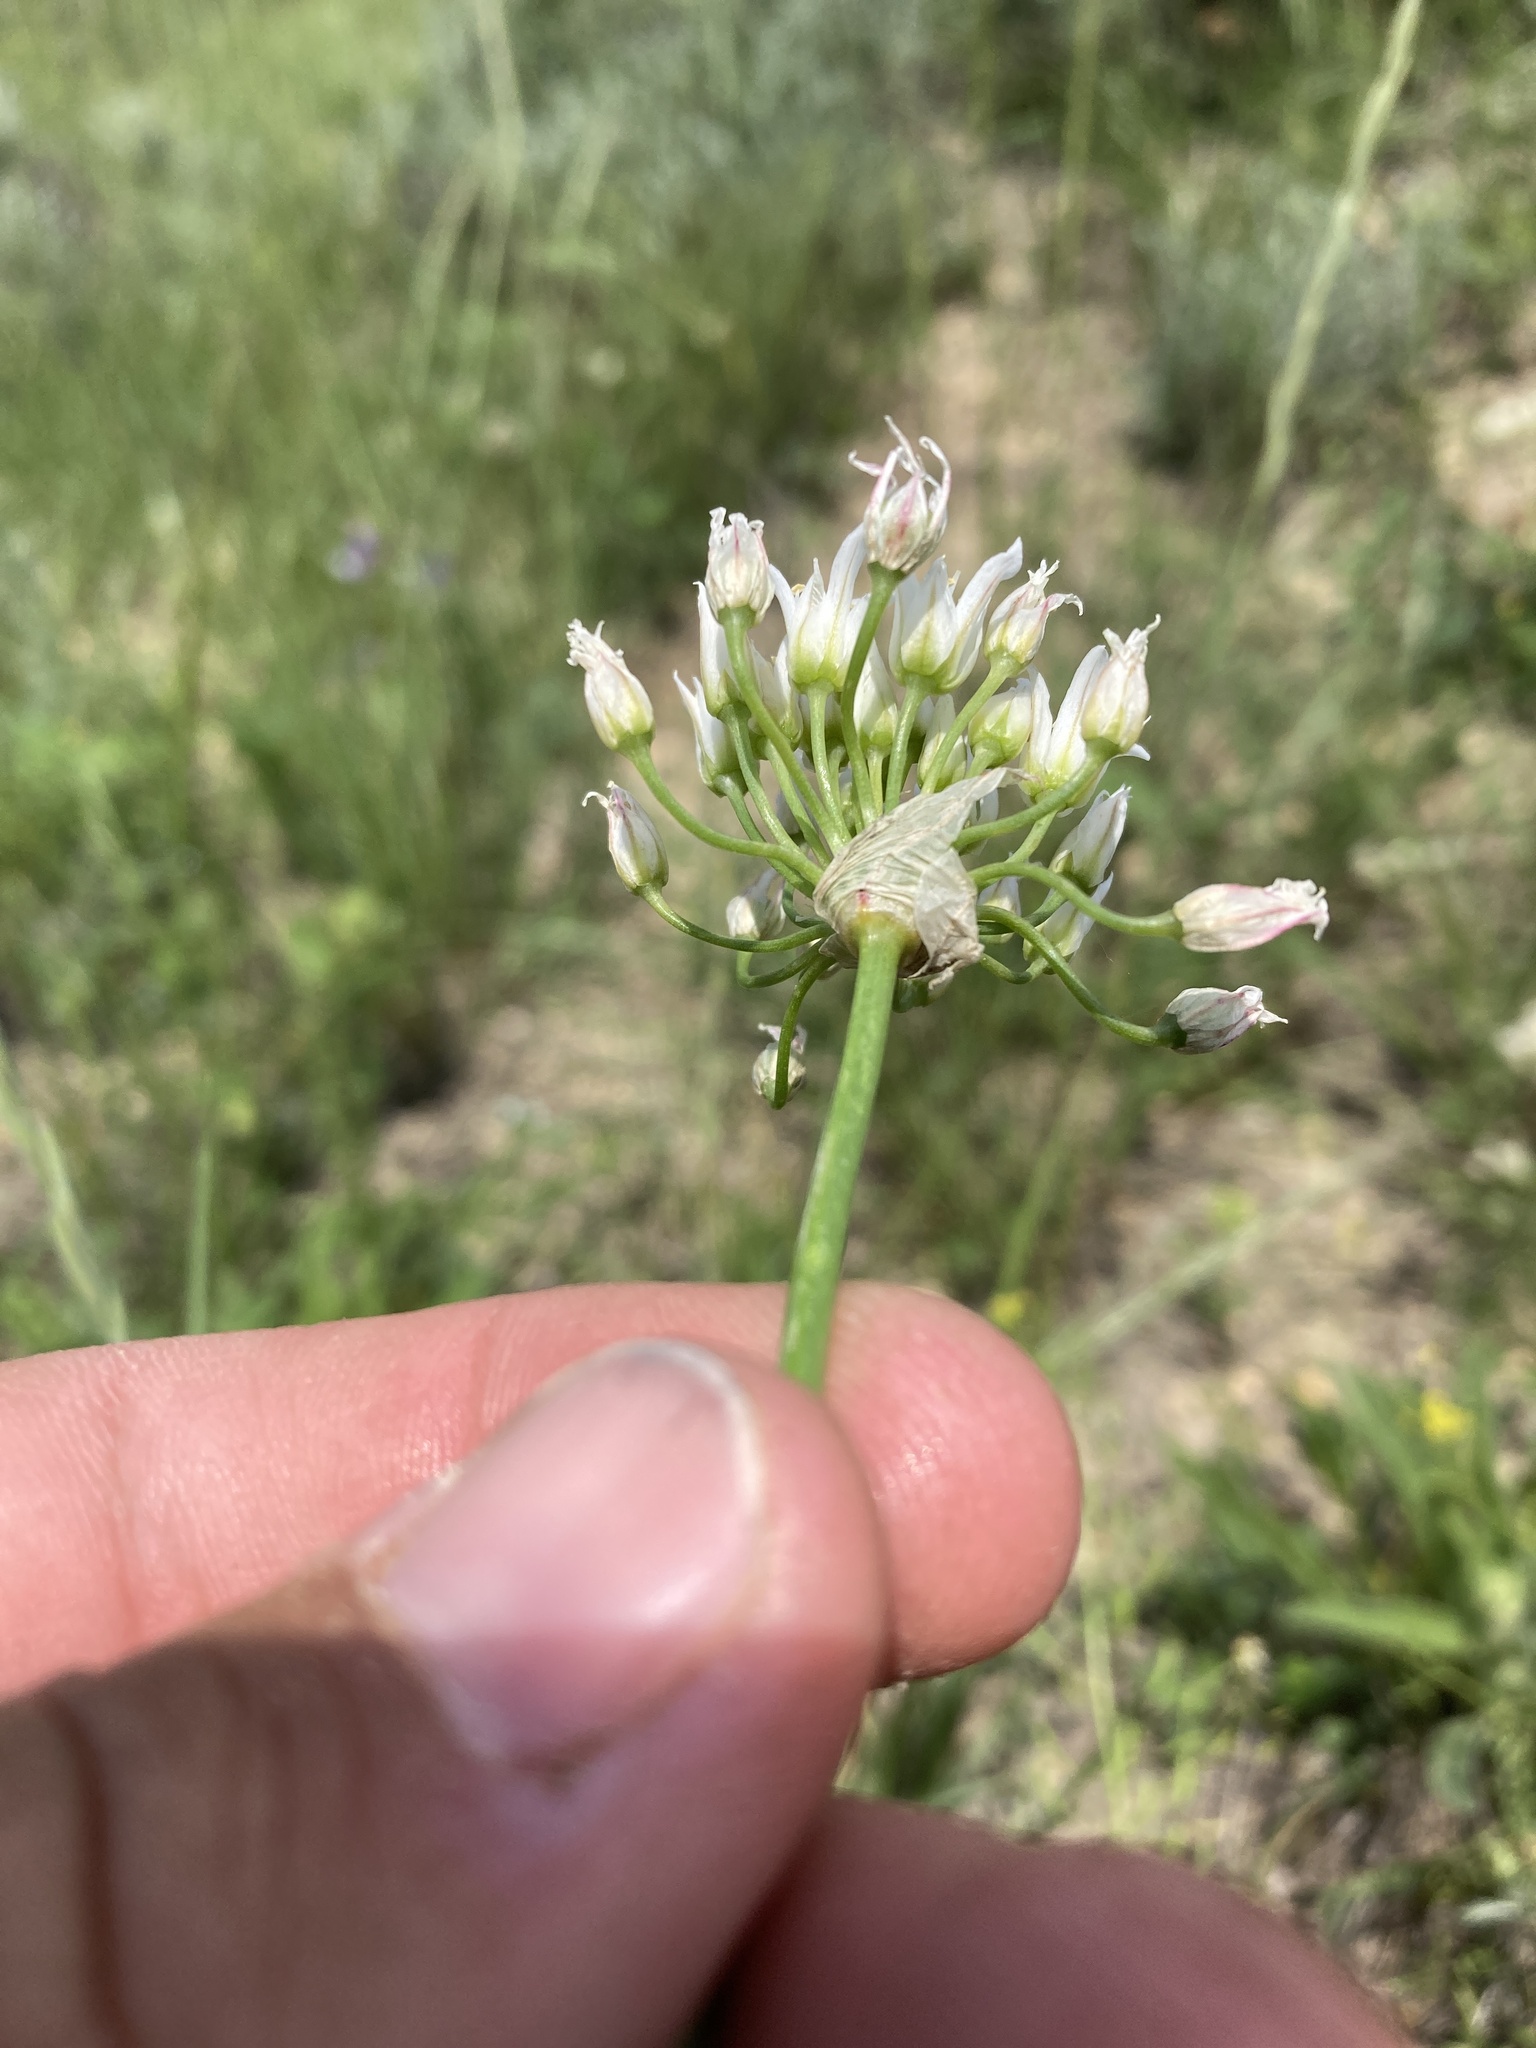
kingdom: Plantae
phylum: Tracheophyta
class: Liliopsida
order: Asparagales
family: Amaryllidaceae
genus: Allium
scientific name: Allium textile
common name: Prairie onion
